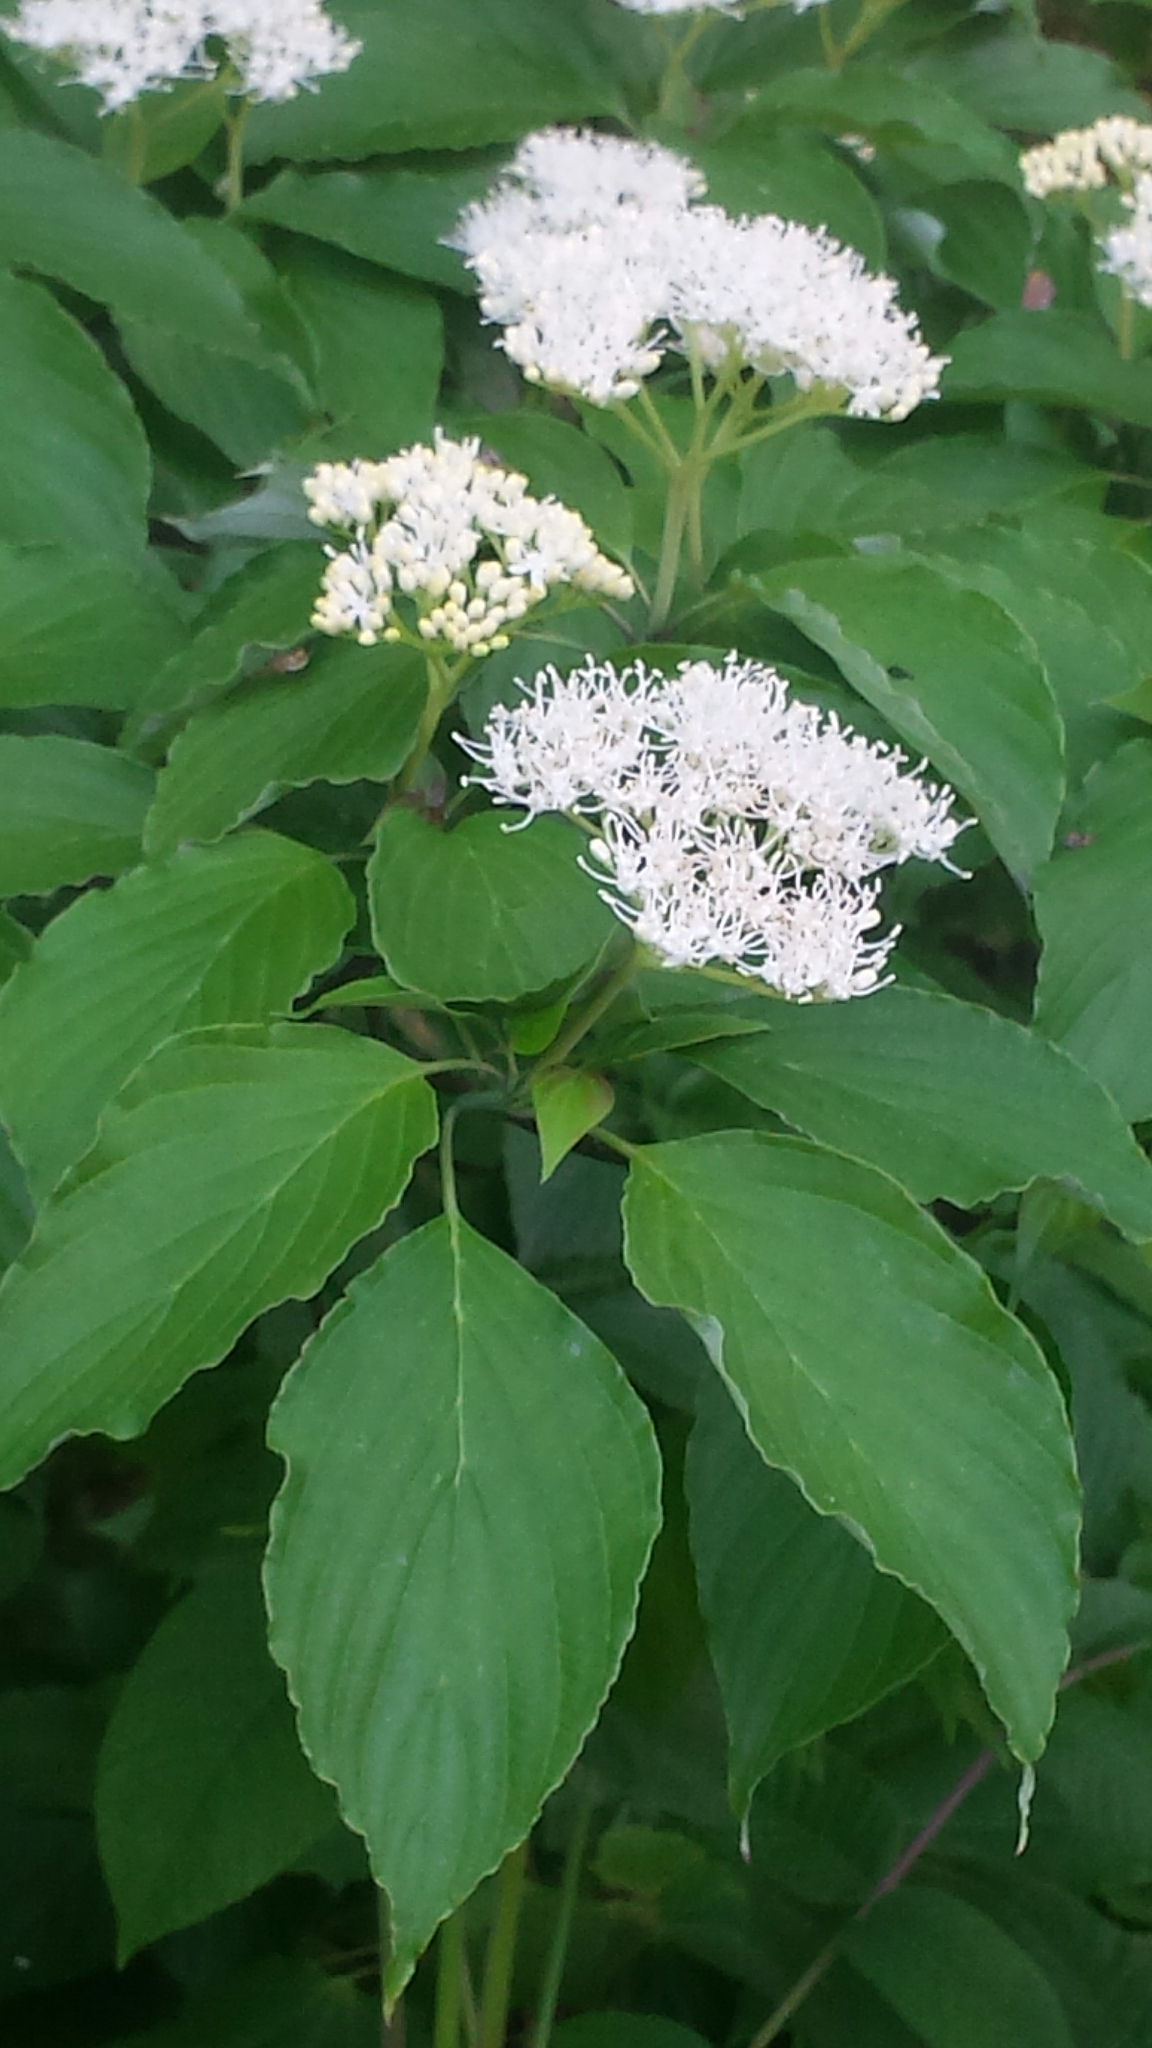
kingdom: Plantae
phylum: Tracheophyta
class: Magnoliopsida
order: Cornales
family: Cornaceae
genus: Cornus
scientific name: Cornus alternifolia
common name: Pagoda dogwood
